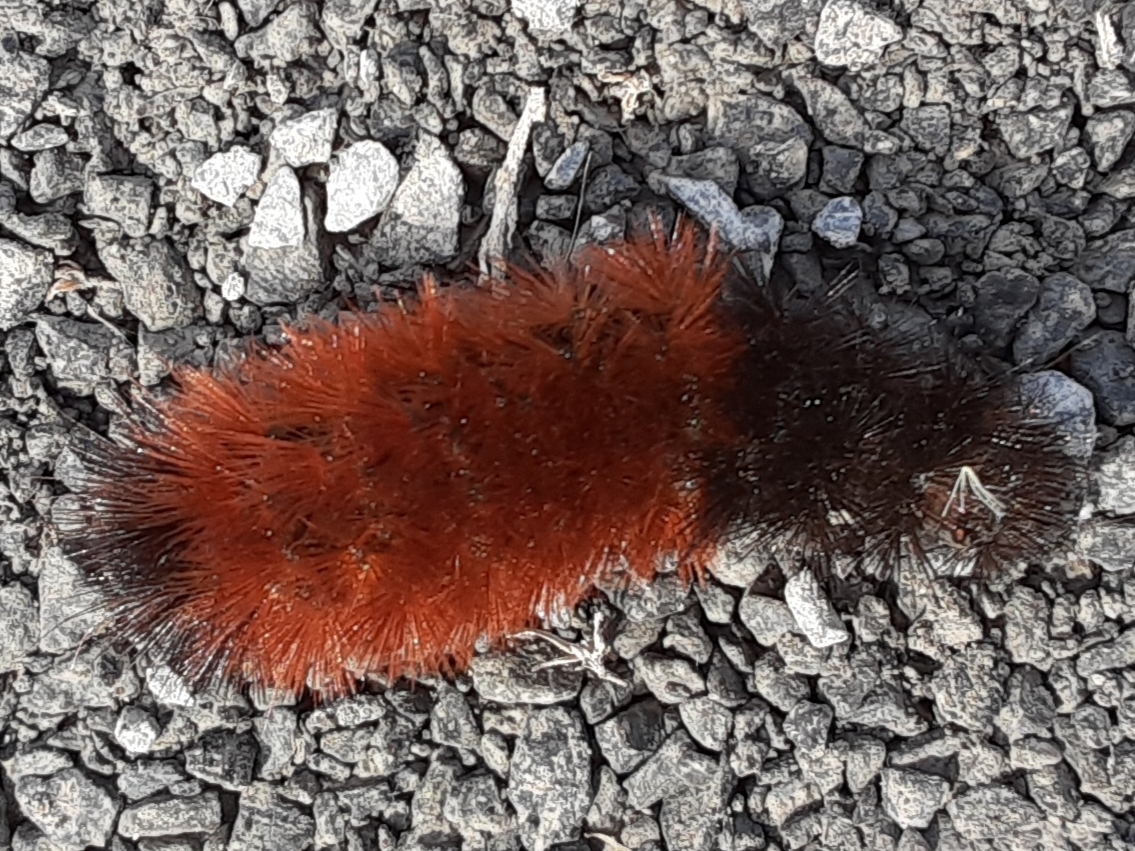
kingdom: Animalia
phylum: Arthropoda
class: Insecta
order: Lepidoptera
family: Erebidae
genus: Pyrrharctia
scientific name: Pyrrharctia isabella
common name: Isabella tiger moth
